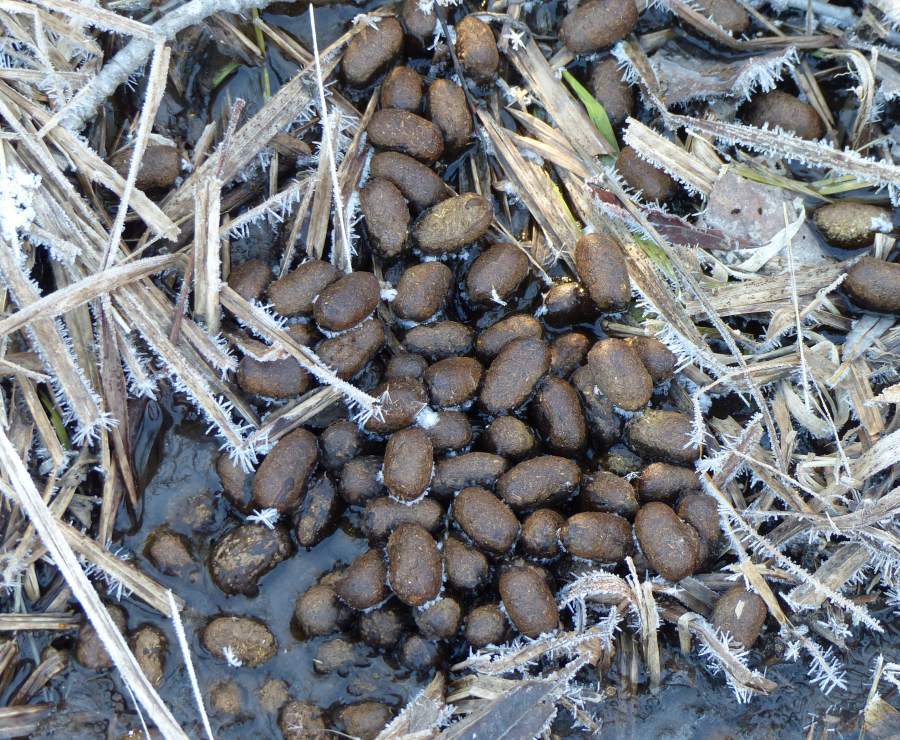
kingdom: Animalia
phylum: Chordata
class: Mammalia
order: Artiodactyla
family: Cervidae
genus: Alces
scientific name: Alces alces
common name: Moose
